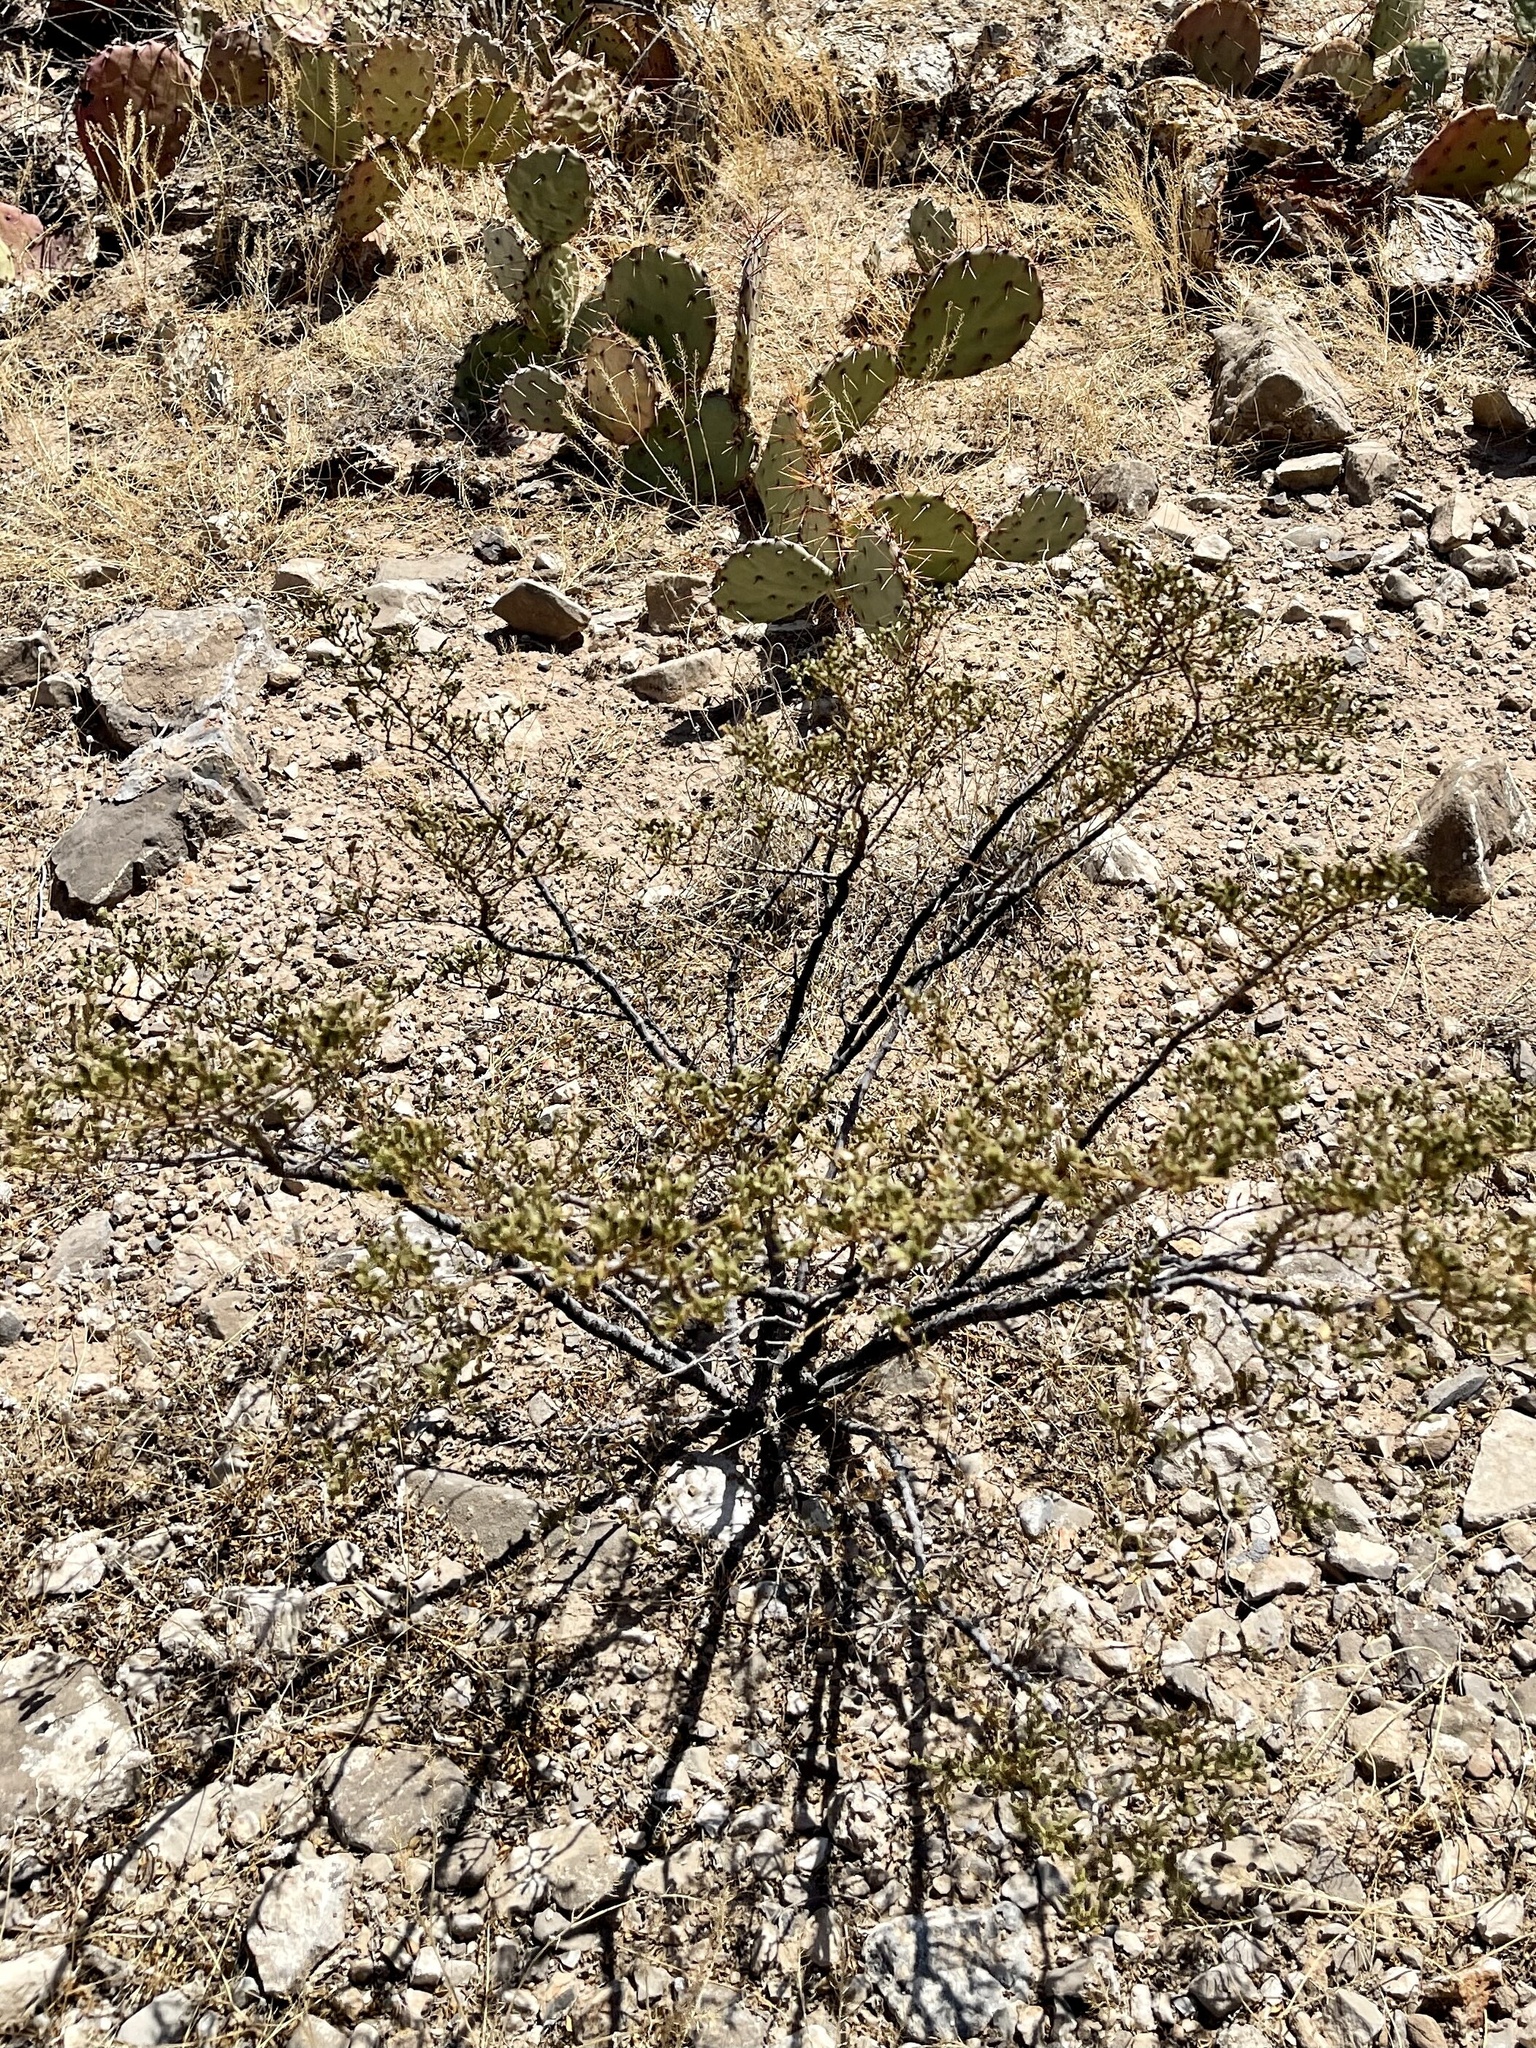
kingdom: Plantae
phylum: Tracheophyta
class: Magnoliopsida
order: Zygophyllales
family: Zygophyllaceae
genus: Larrea
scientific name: Larrea tridentata
